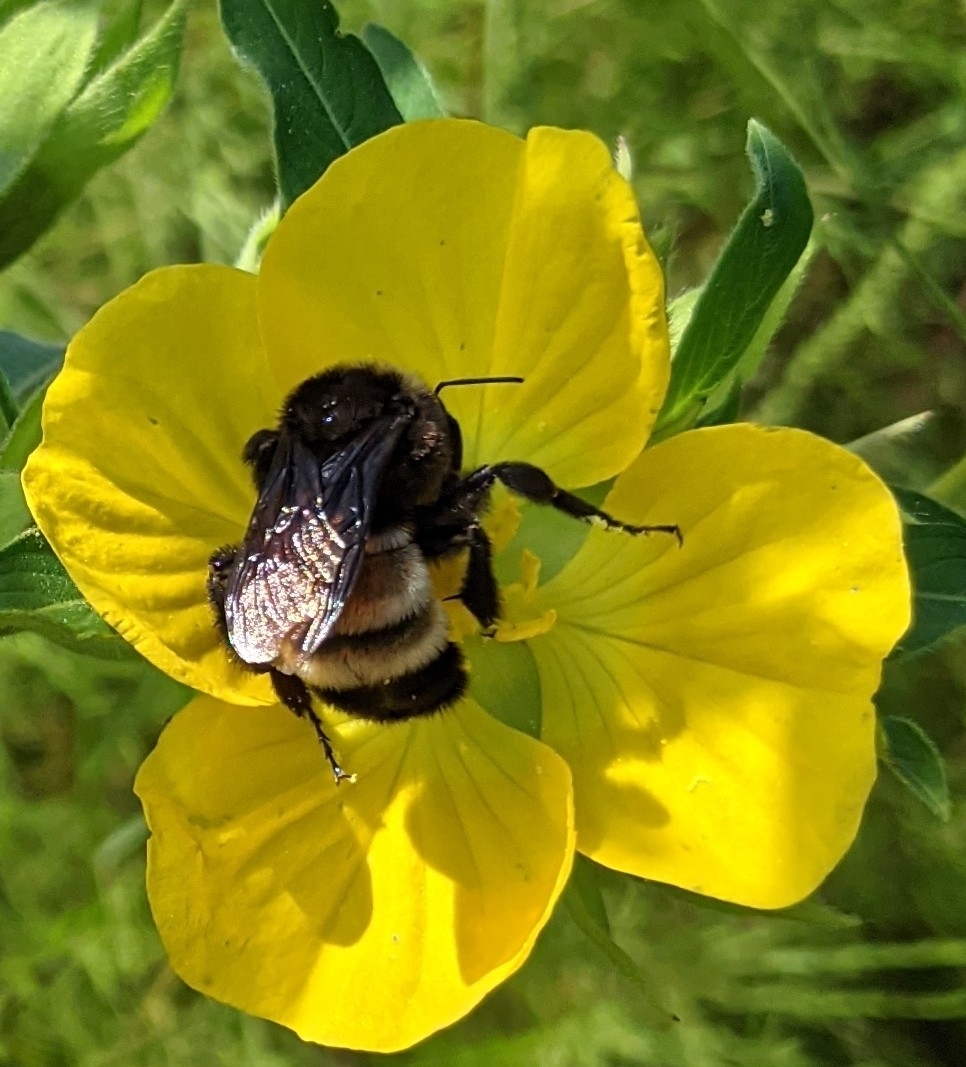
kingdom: Animalia
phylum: Arthropoda
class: Insecta
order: Hymenoptera
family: Apidae
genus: Bombus
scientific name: Bombus pensylvanicus
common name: Bumble bee
